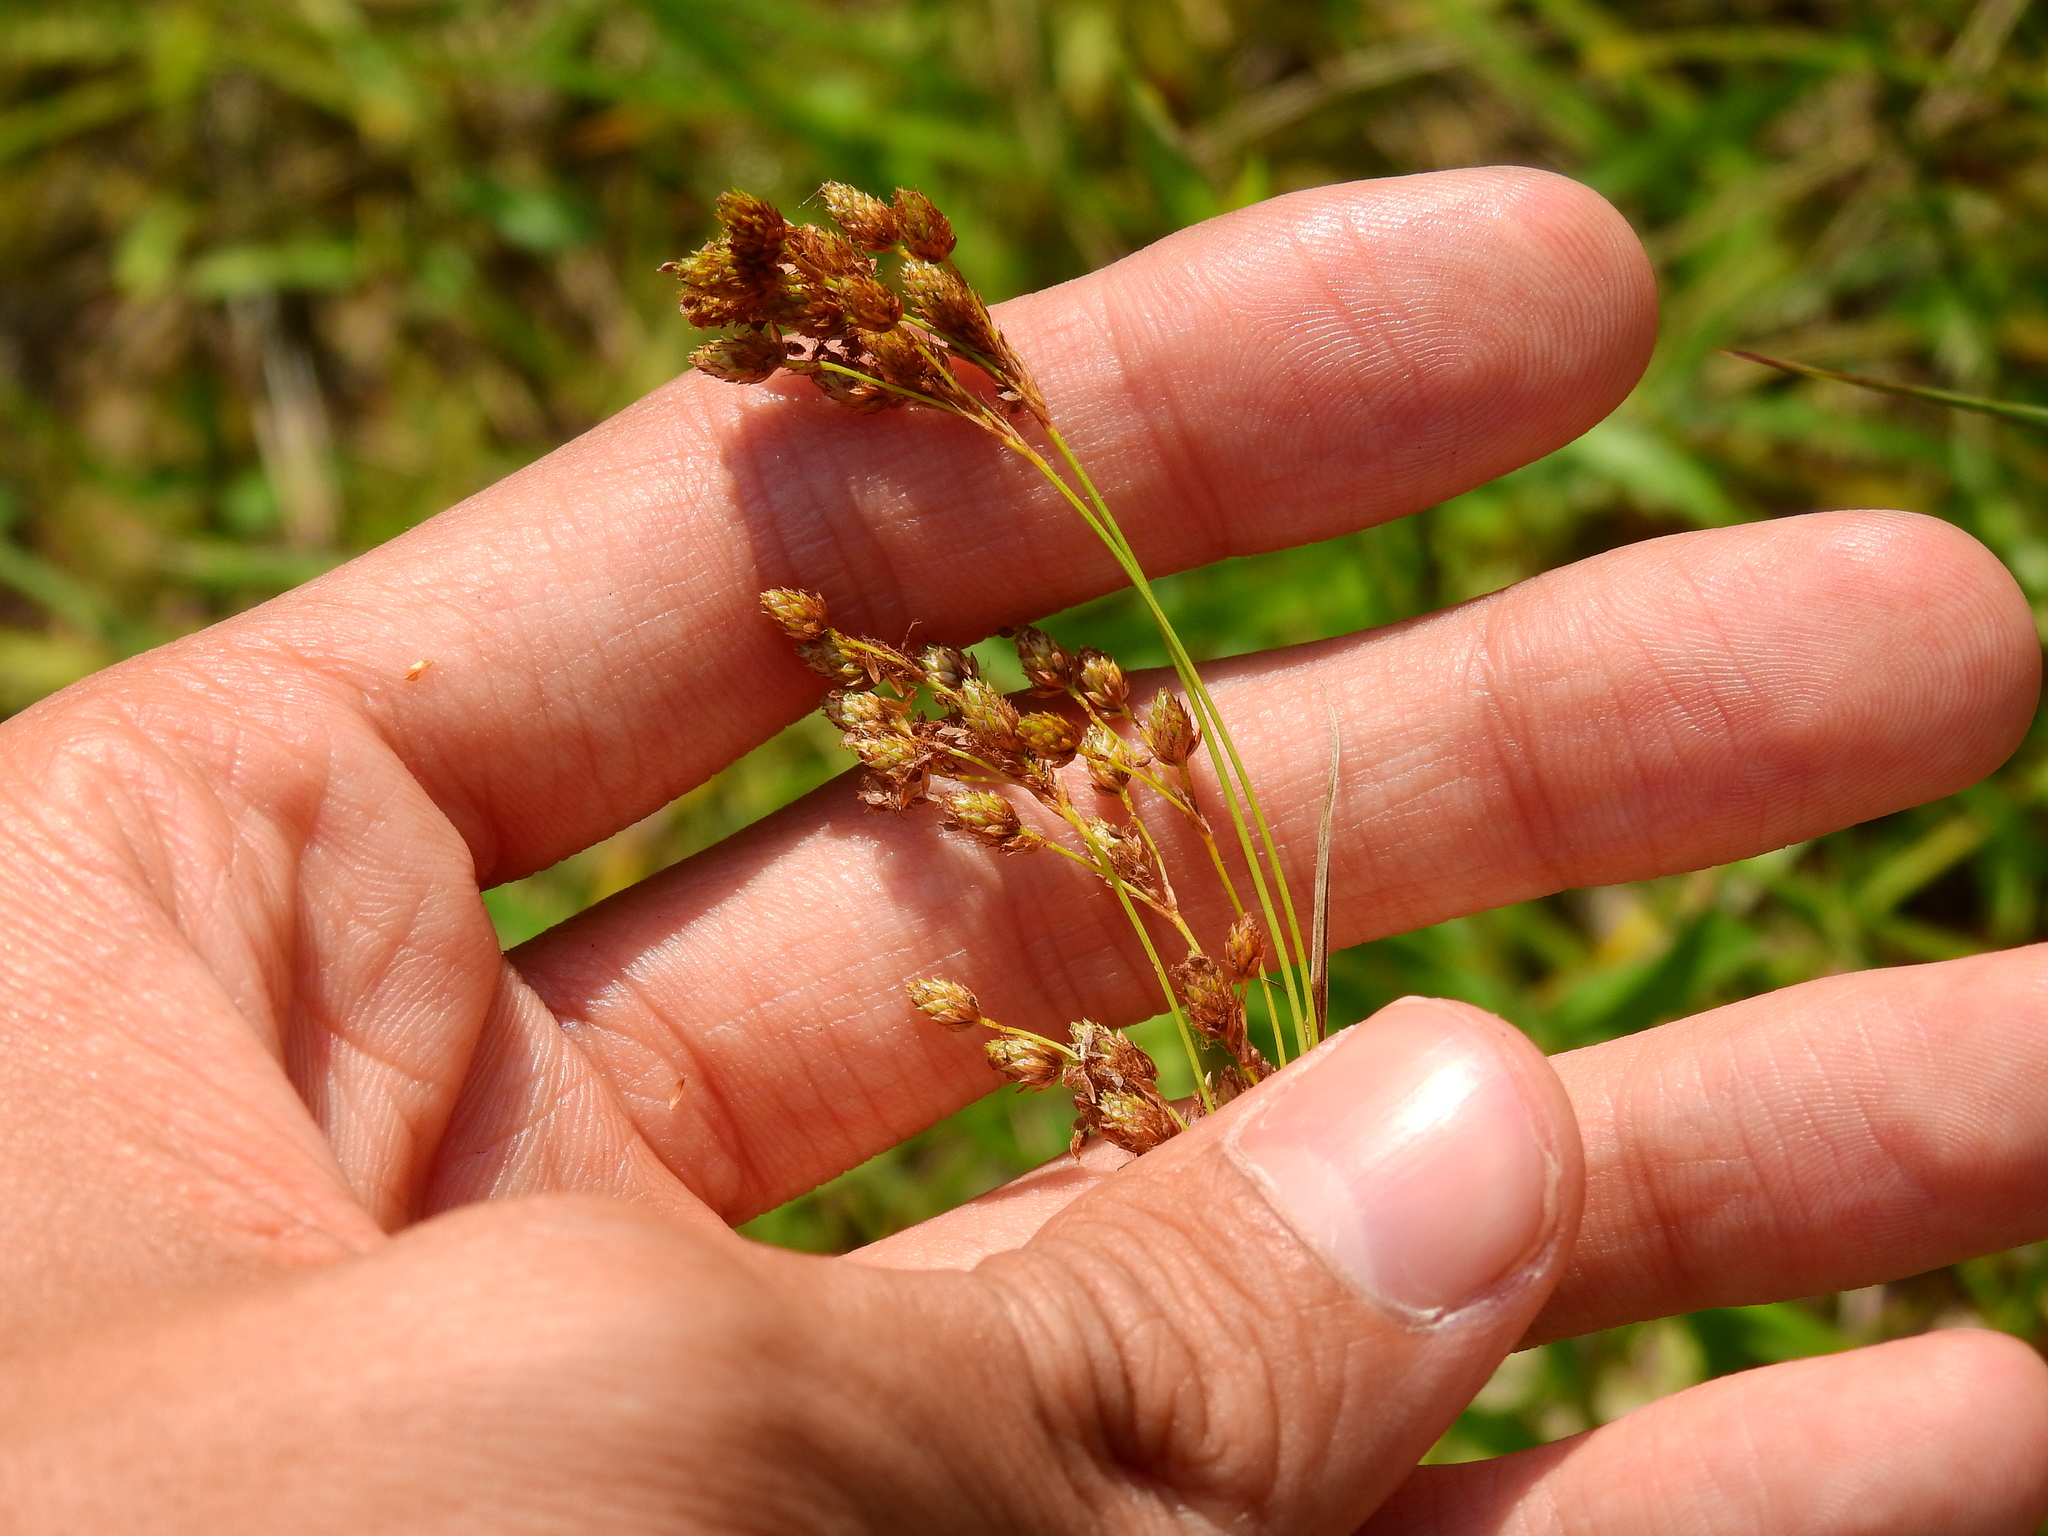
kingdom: Plantae
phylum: Tracheophyta
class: Liliopsida
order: Poales
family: Cyperaceae
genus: Scirpus
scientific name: Scirpus pendulus
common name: Nodding bulrush
